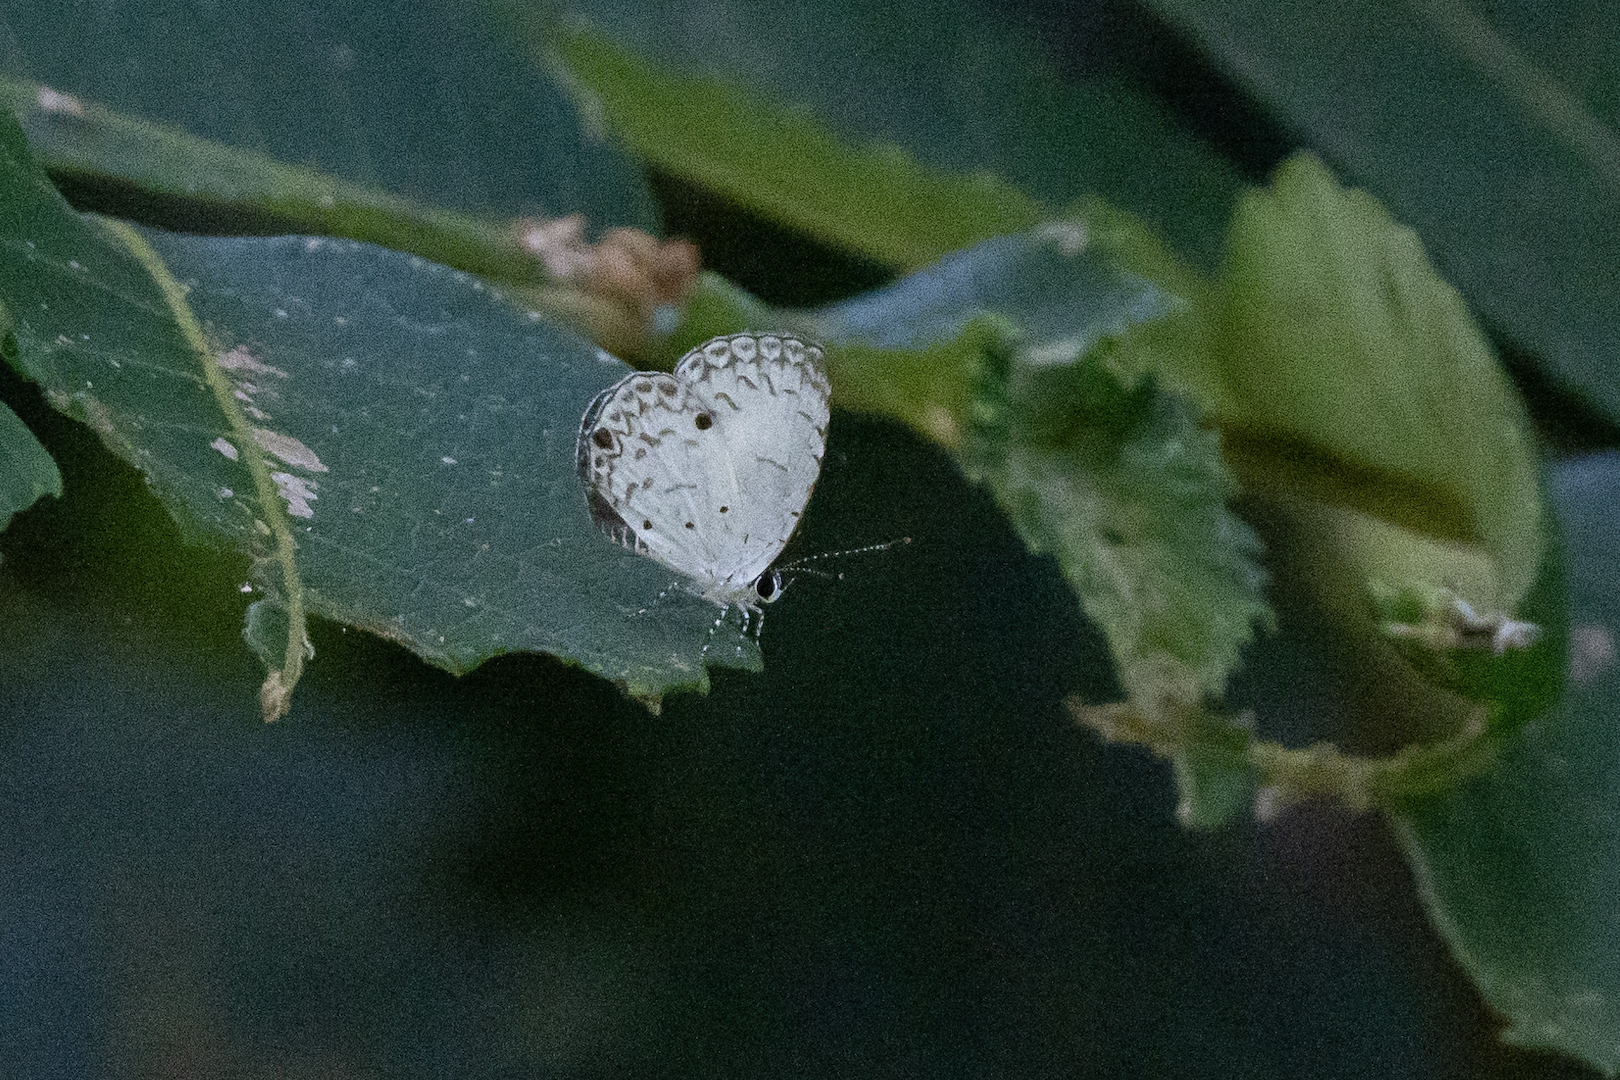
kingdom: Animalia
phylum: Arthropoda
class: Insecta
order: Lepidoptera
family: Lycaenidae
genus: Megisba
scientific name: Megisba malaya
